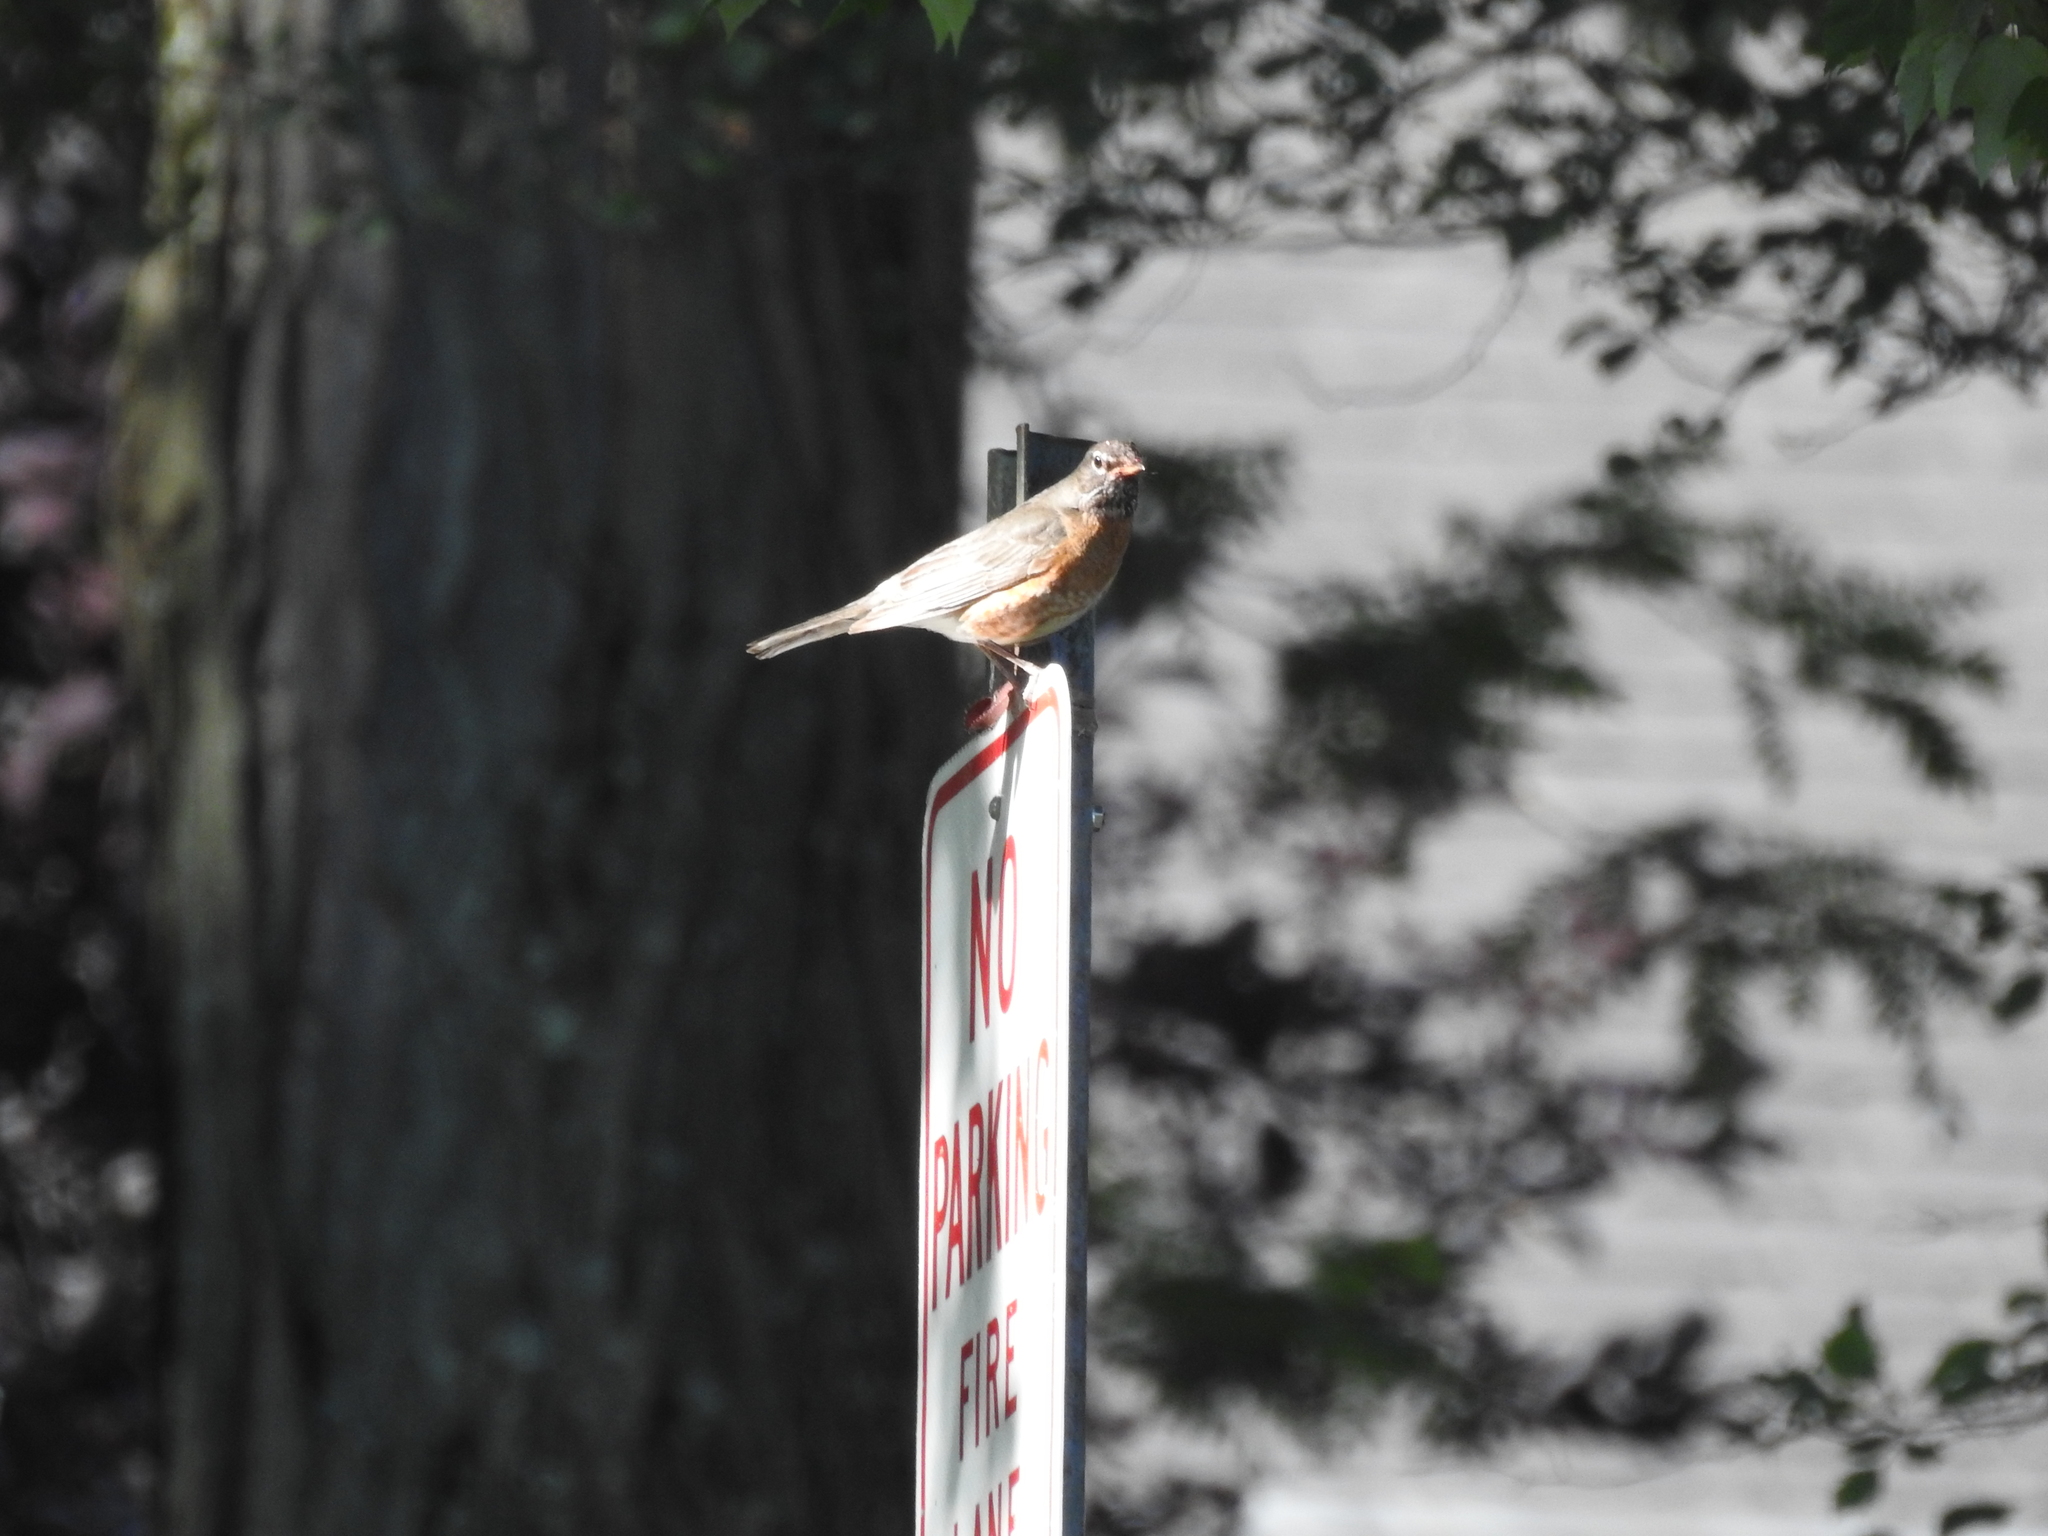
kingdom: Animalia
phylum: Chordata
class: Aves
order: Passeriformes
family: Turdidae
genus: Turdus
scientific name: Turdus migratorius
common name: American robin
